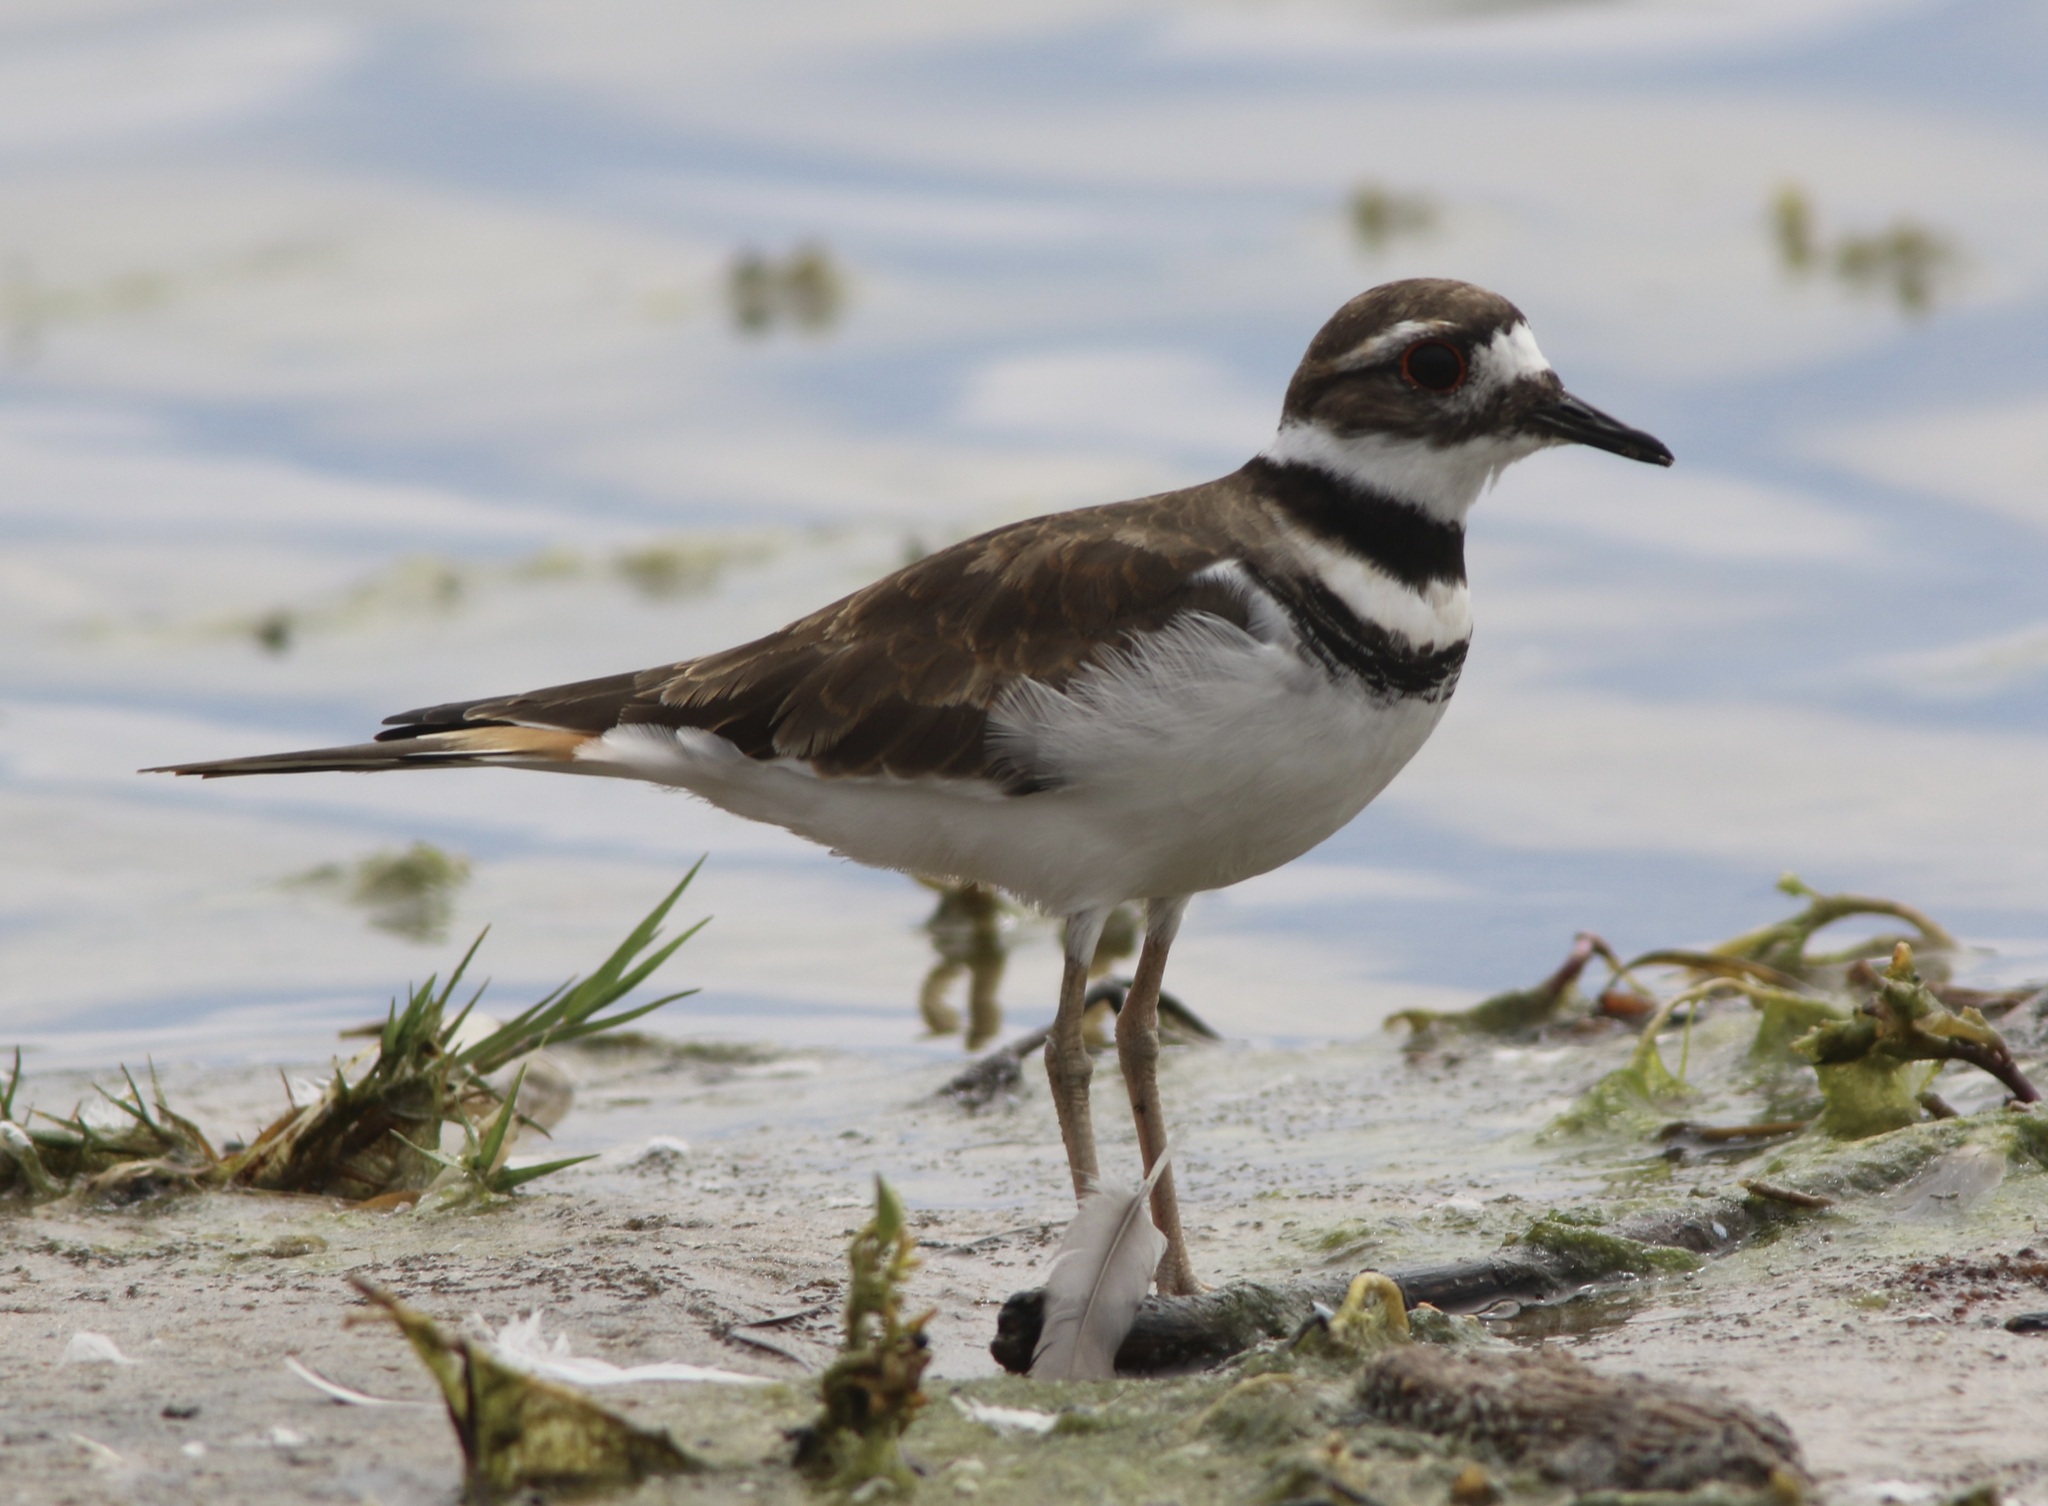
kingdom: Animalia
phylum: Arthropoda
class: Insecta
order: Odonata
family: Libellulidae
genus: Sympetrum
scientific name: Sympetrum corruptum
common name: Variegated meadowhawk
